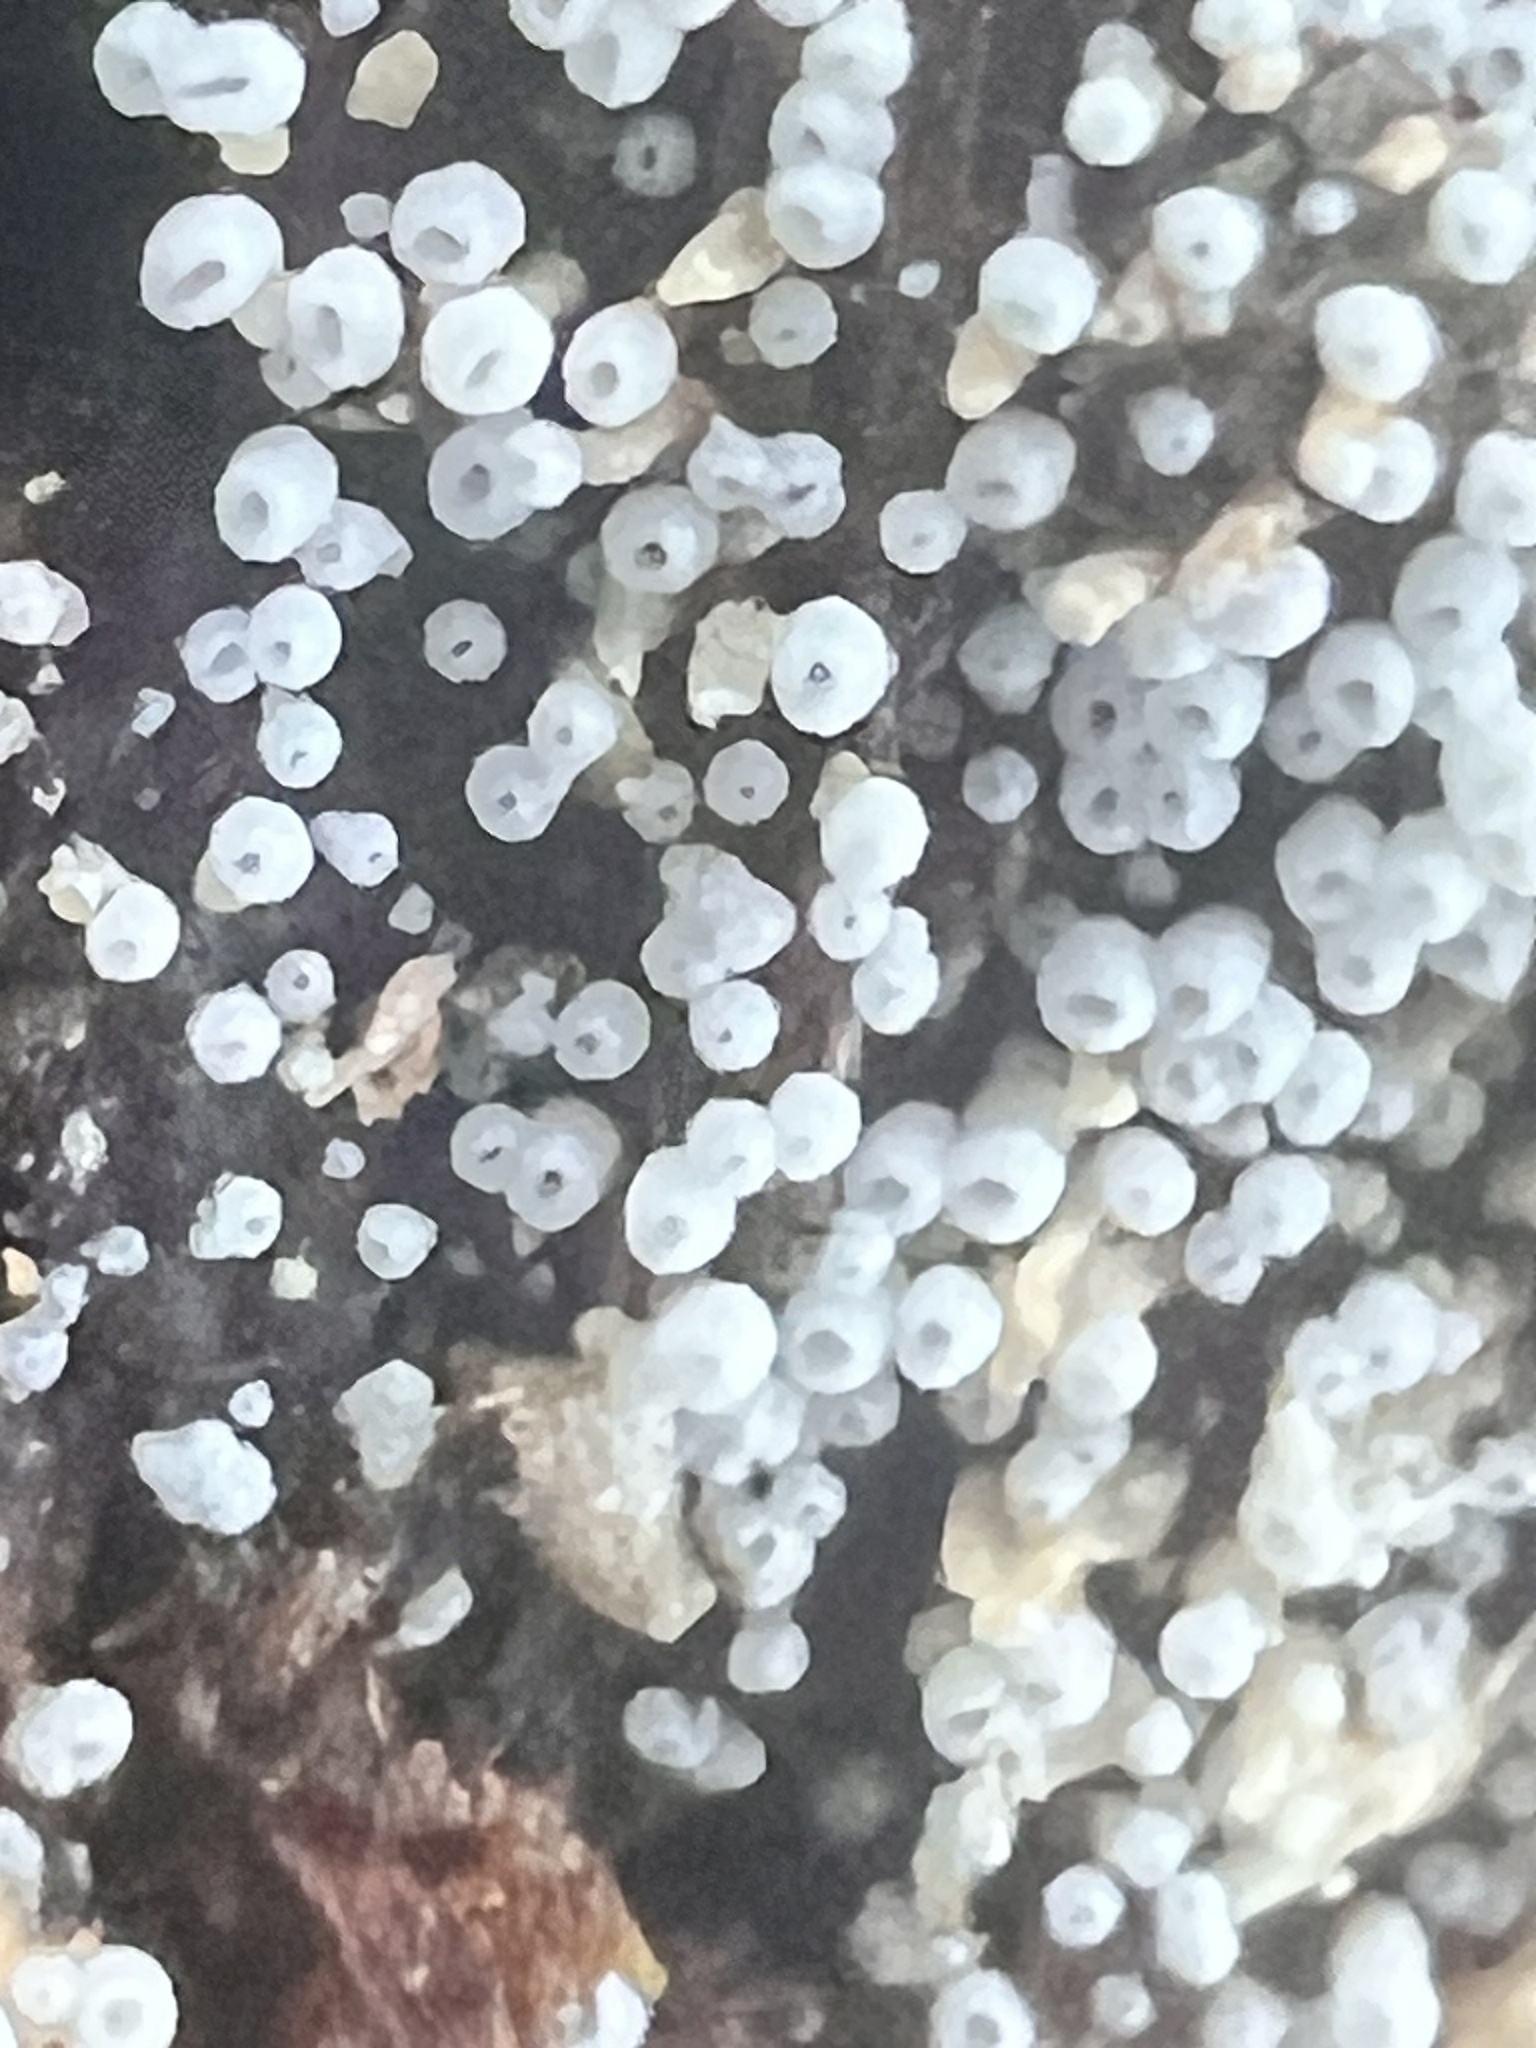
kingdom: Fungi
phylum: Basidiomycota
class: Agaricomycetes
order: Agaricales
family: Marasmiaceae
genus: Henningsomyces
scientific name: Henningsomyces candidus
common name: White tubelet
